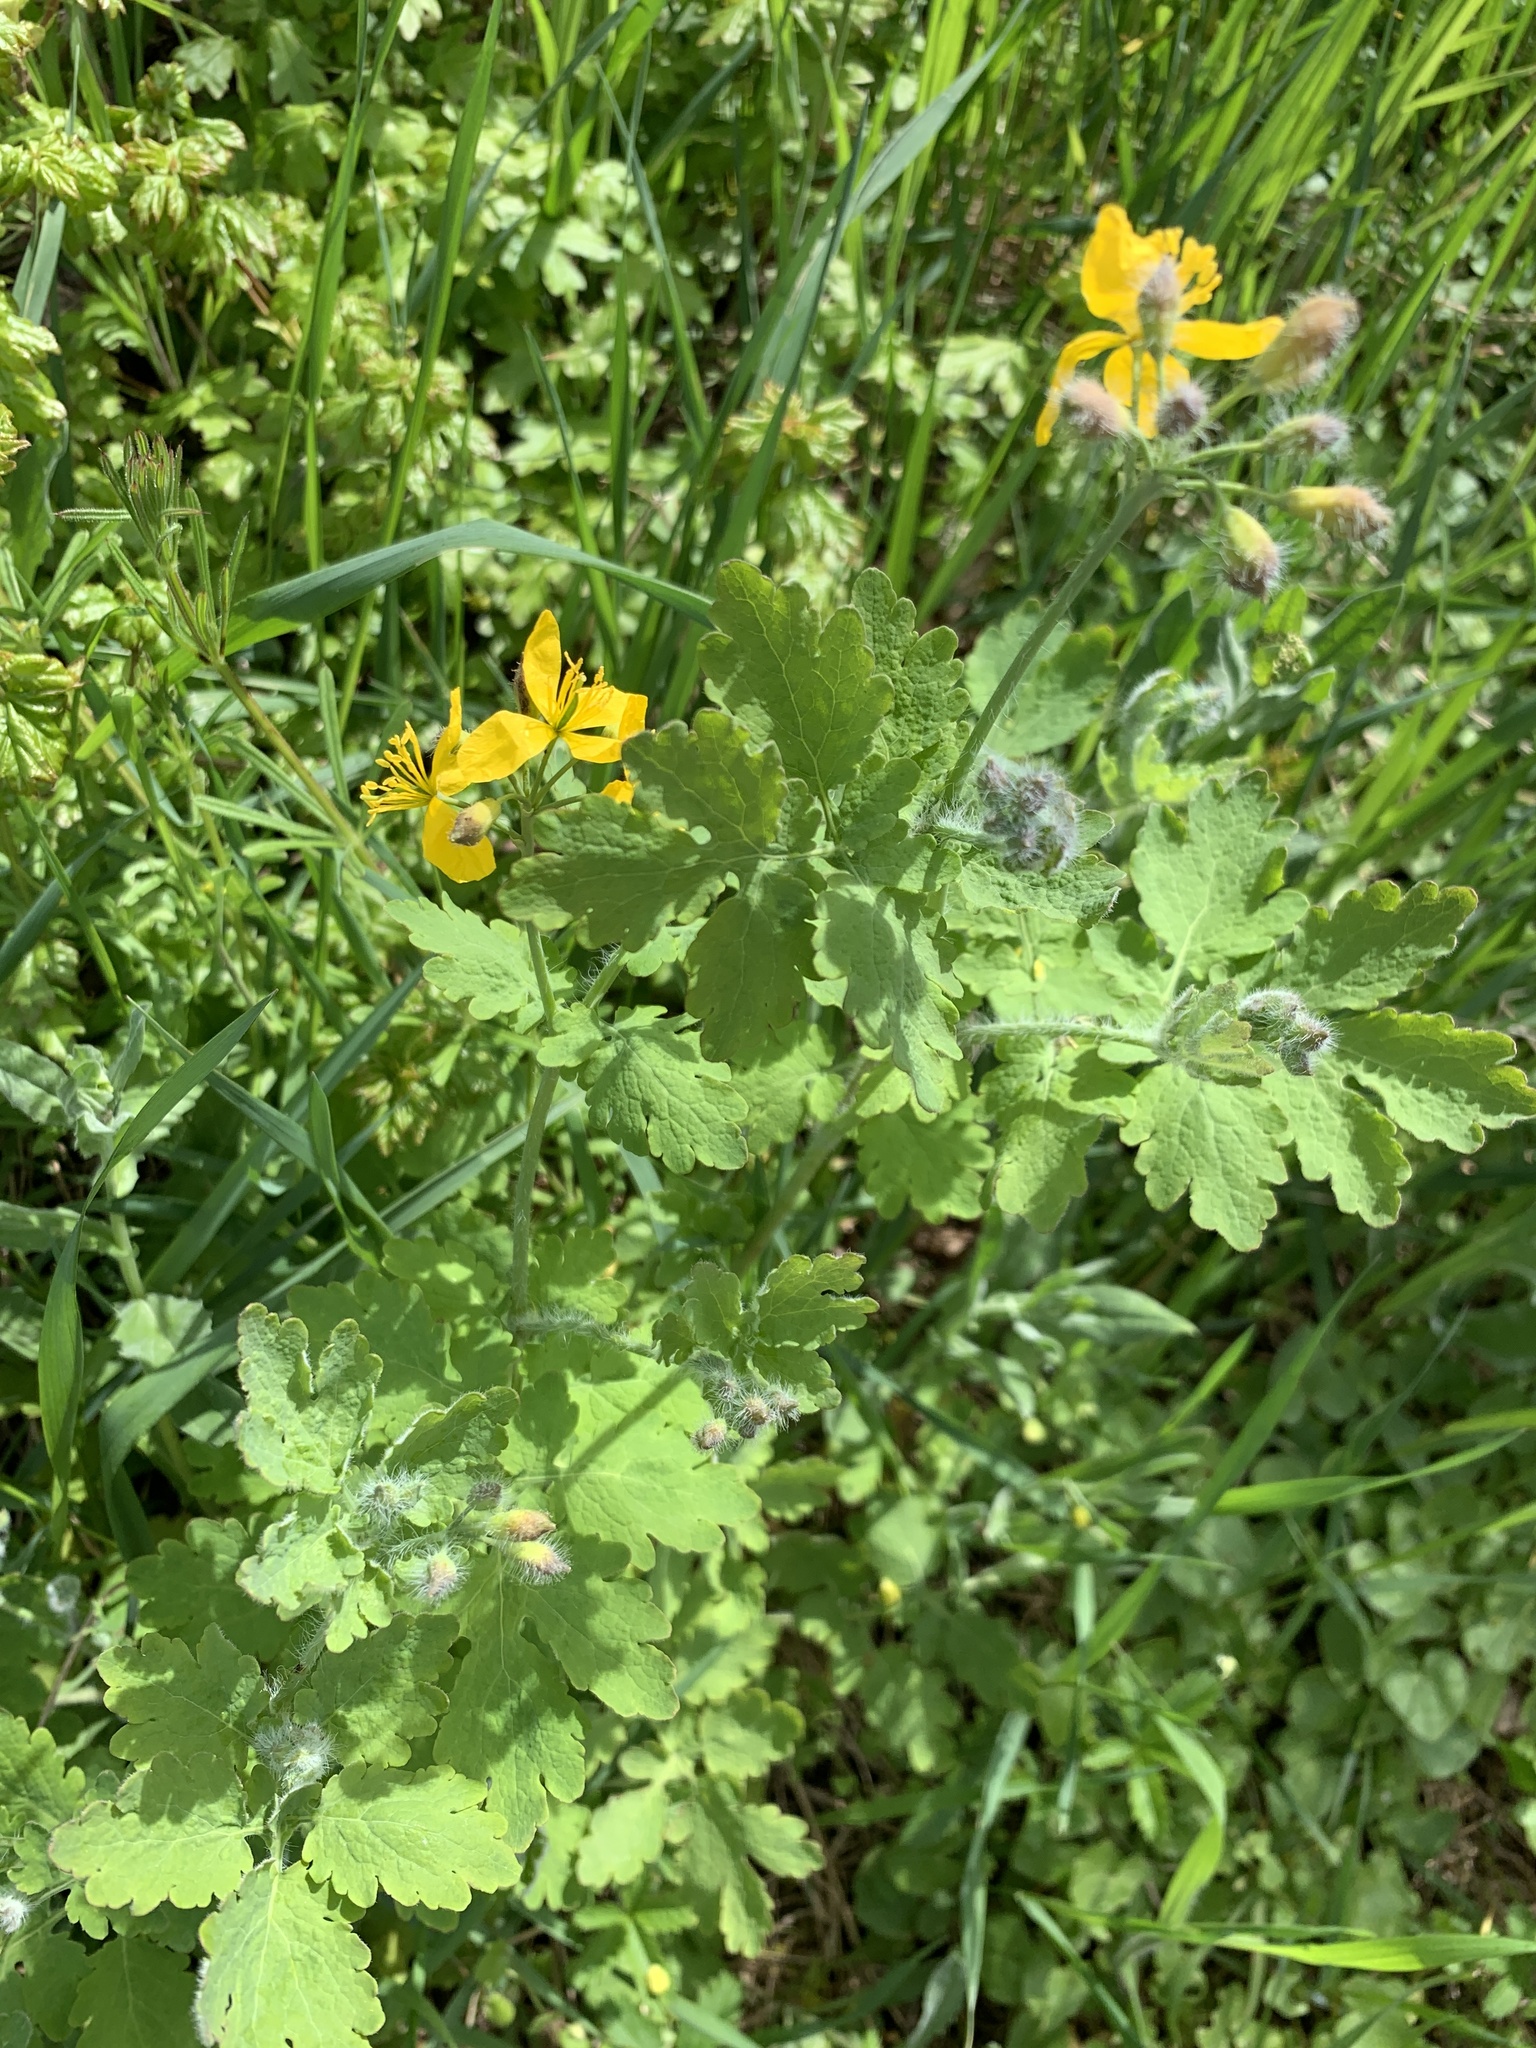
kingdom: Plantae
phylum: Tracheophyta
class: Magnoliopsida
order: Ranunculales
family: Papaveraceae
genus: Chelidonium
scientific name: Chelidonium majus
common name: Greater celandine
